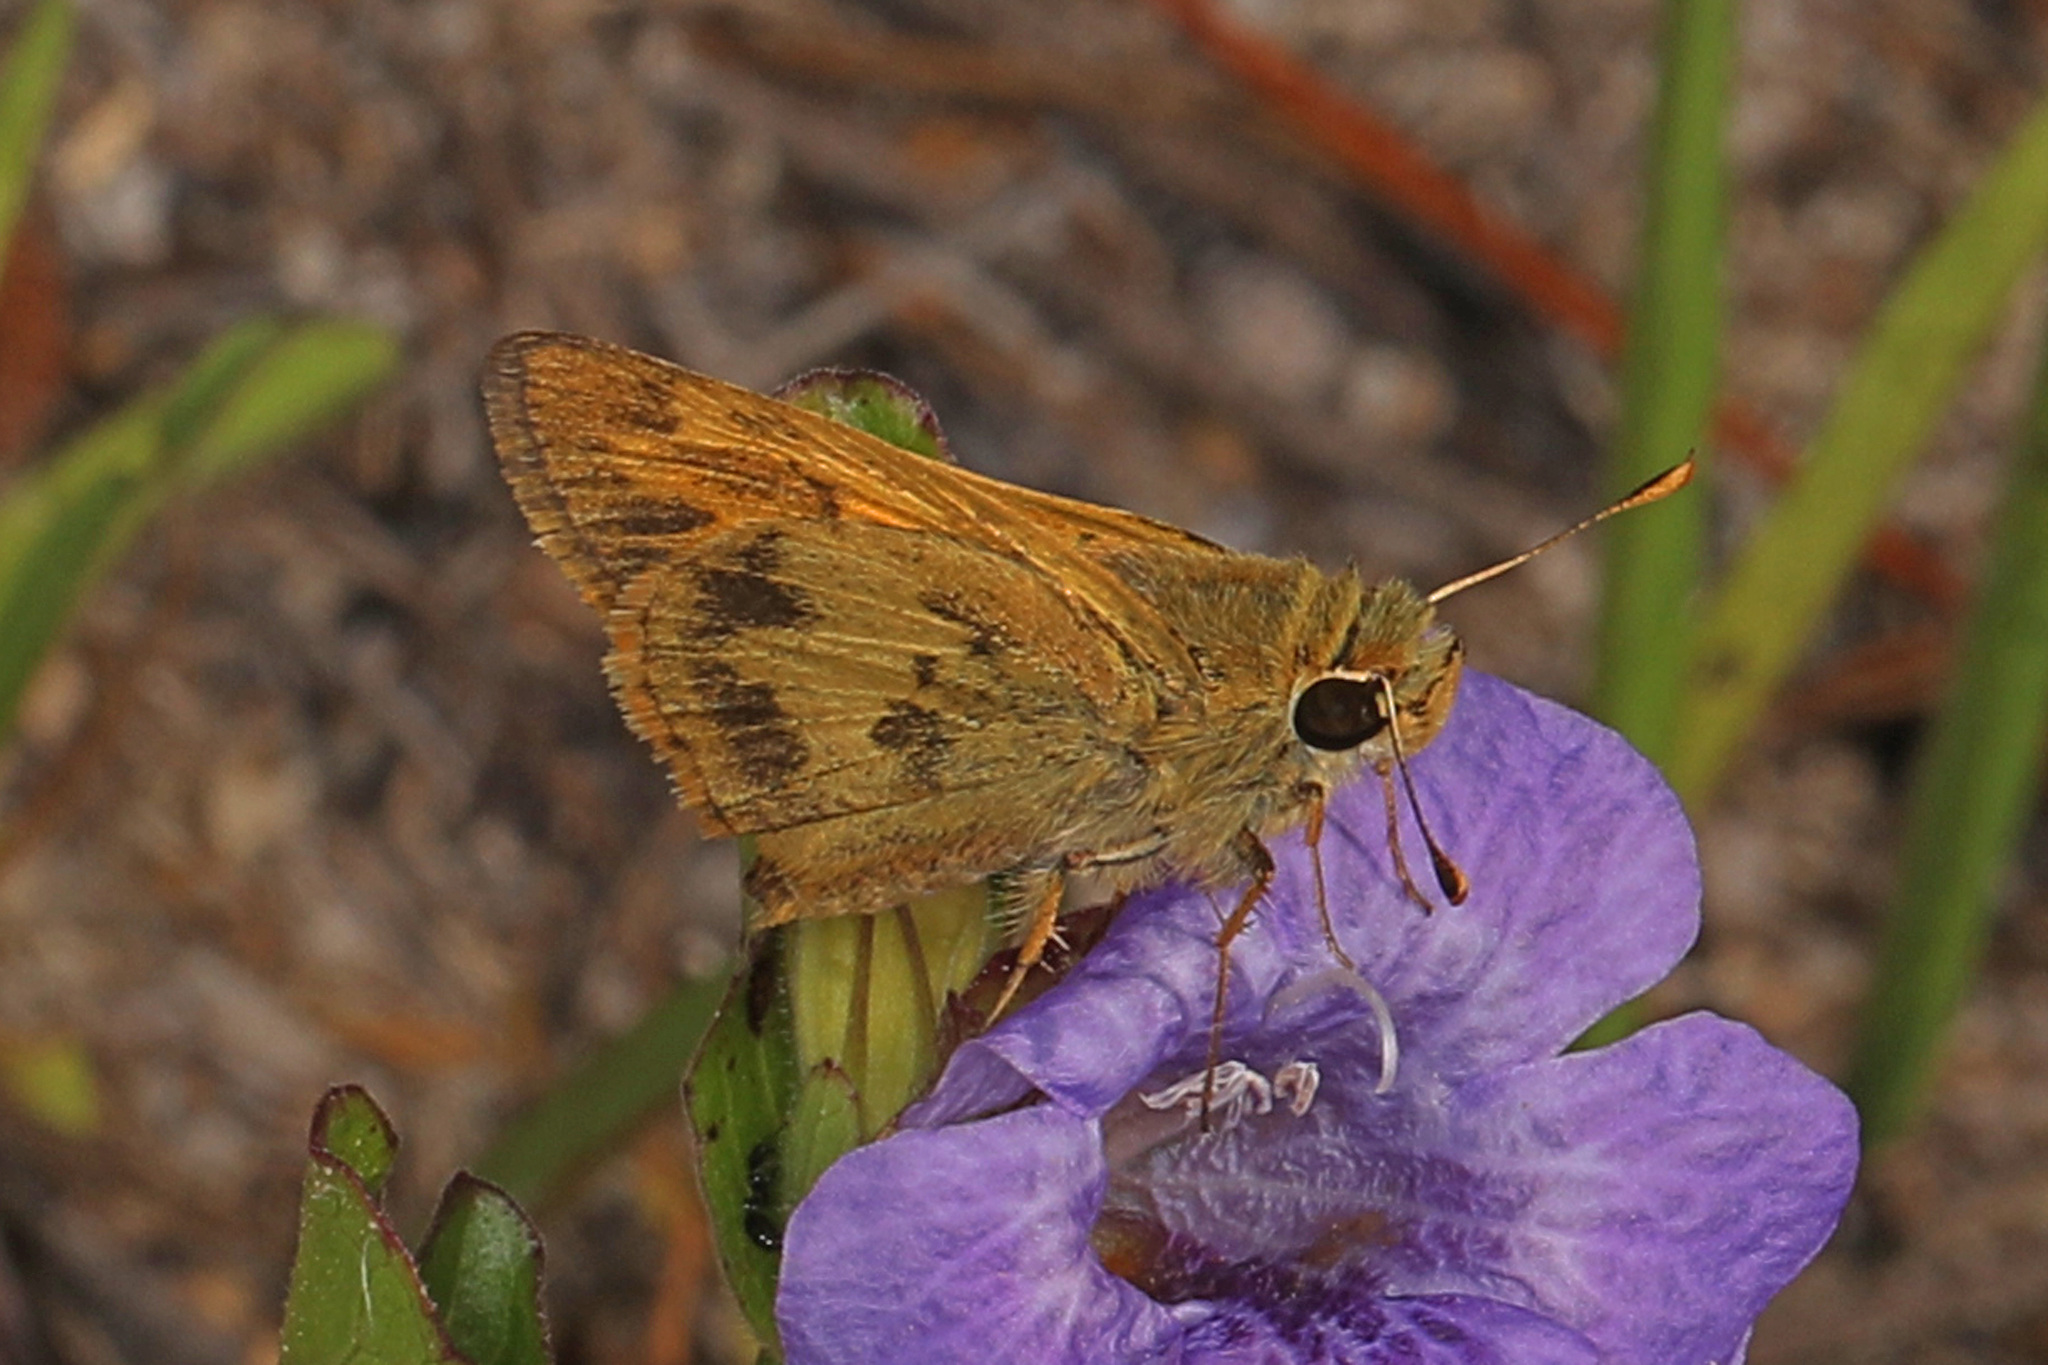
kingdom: Animalia
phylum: Arthropoda
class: Insecta
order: Lepidoptera
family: Hesperiidae
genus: Polites
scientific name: Polites vibex
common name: Whirlabout
